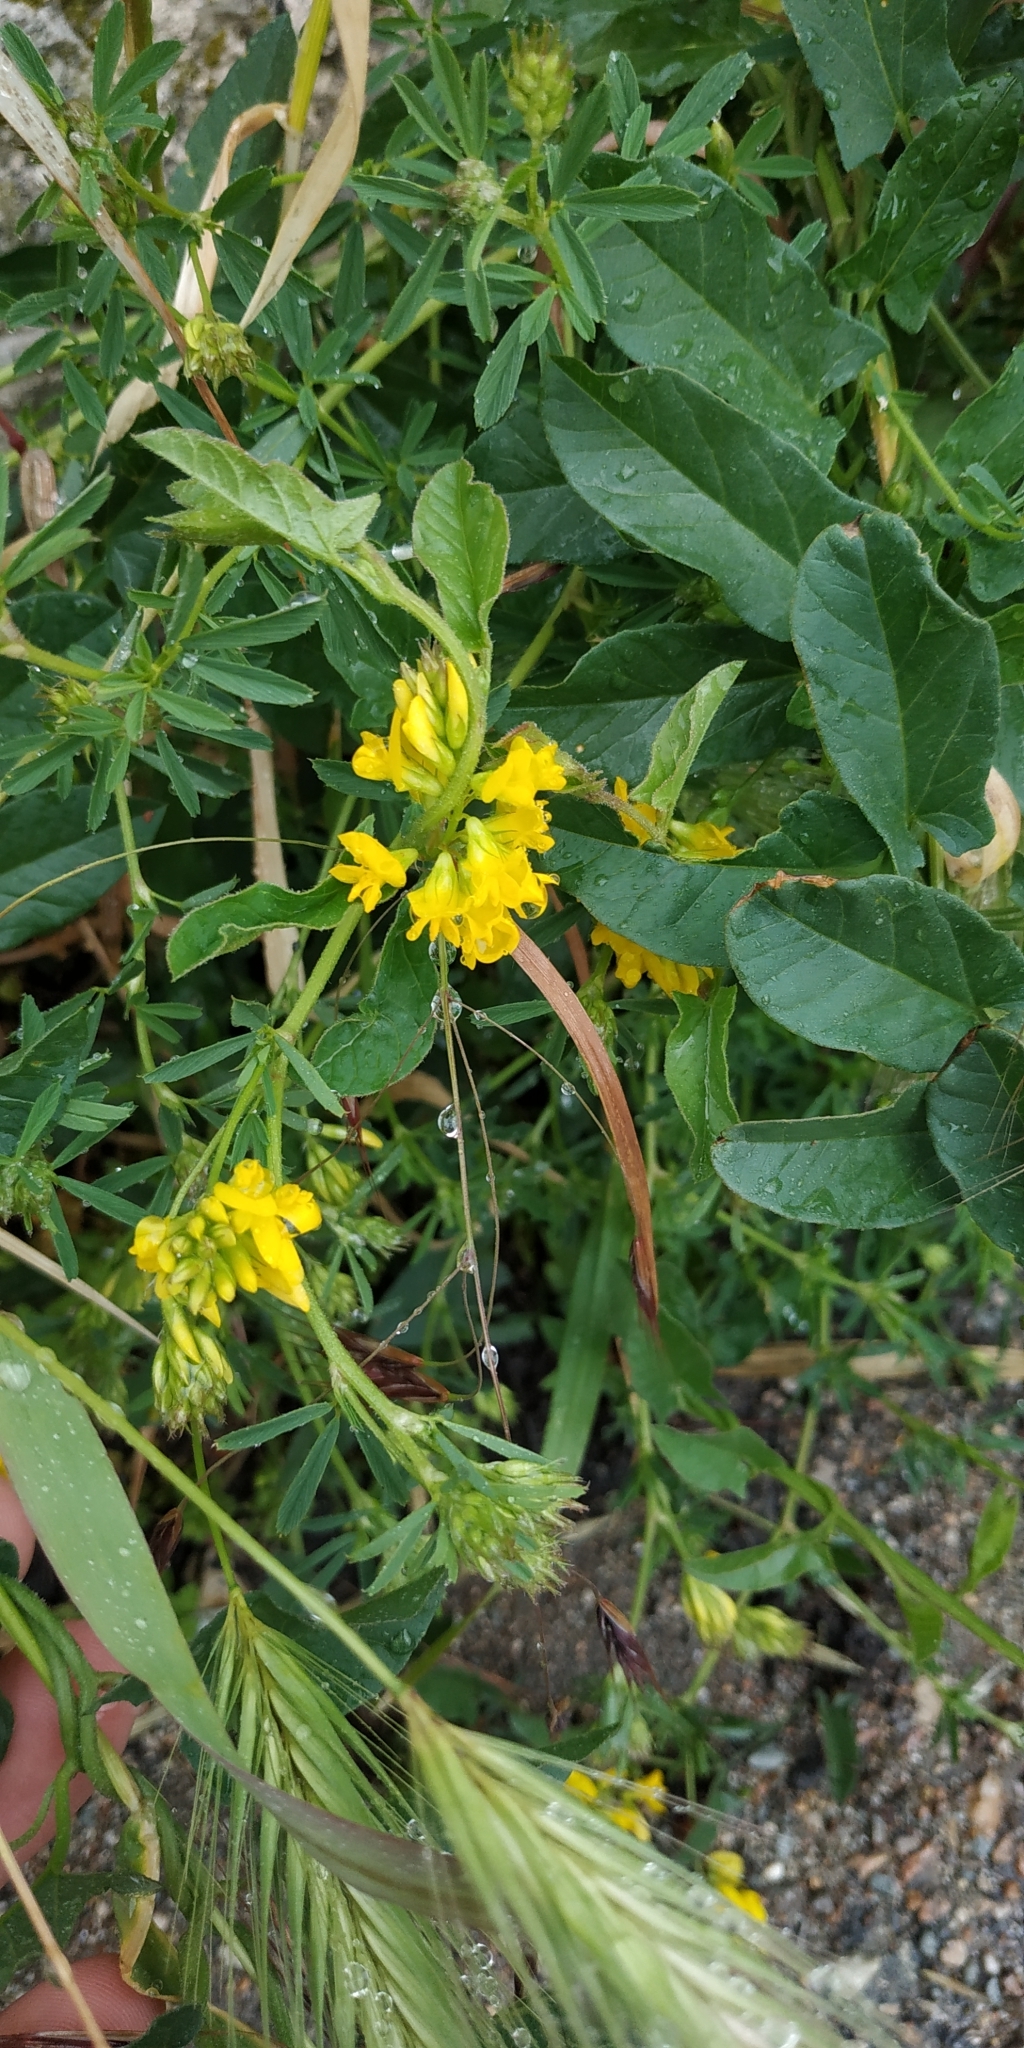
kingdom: Plantae
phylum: Tracheophyta
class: Magnoliopsida
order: Fabales
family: Fabaceae
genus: Medicago
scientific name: Medicago falcata
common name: Sickle medick
